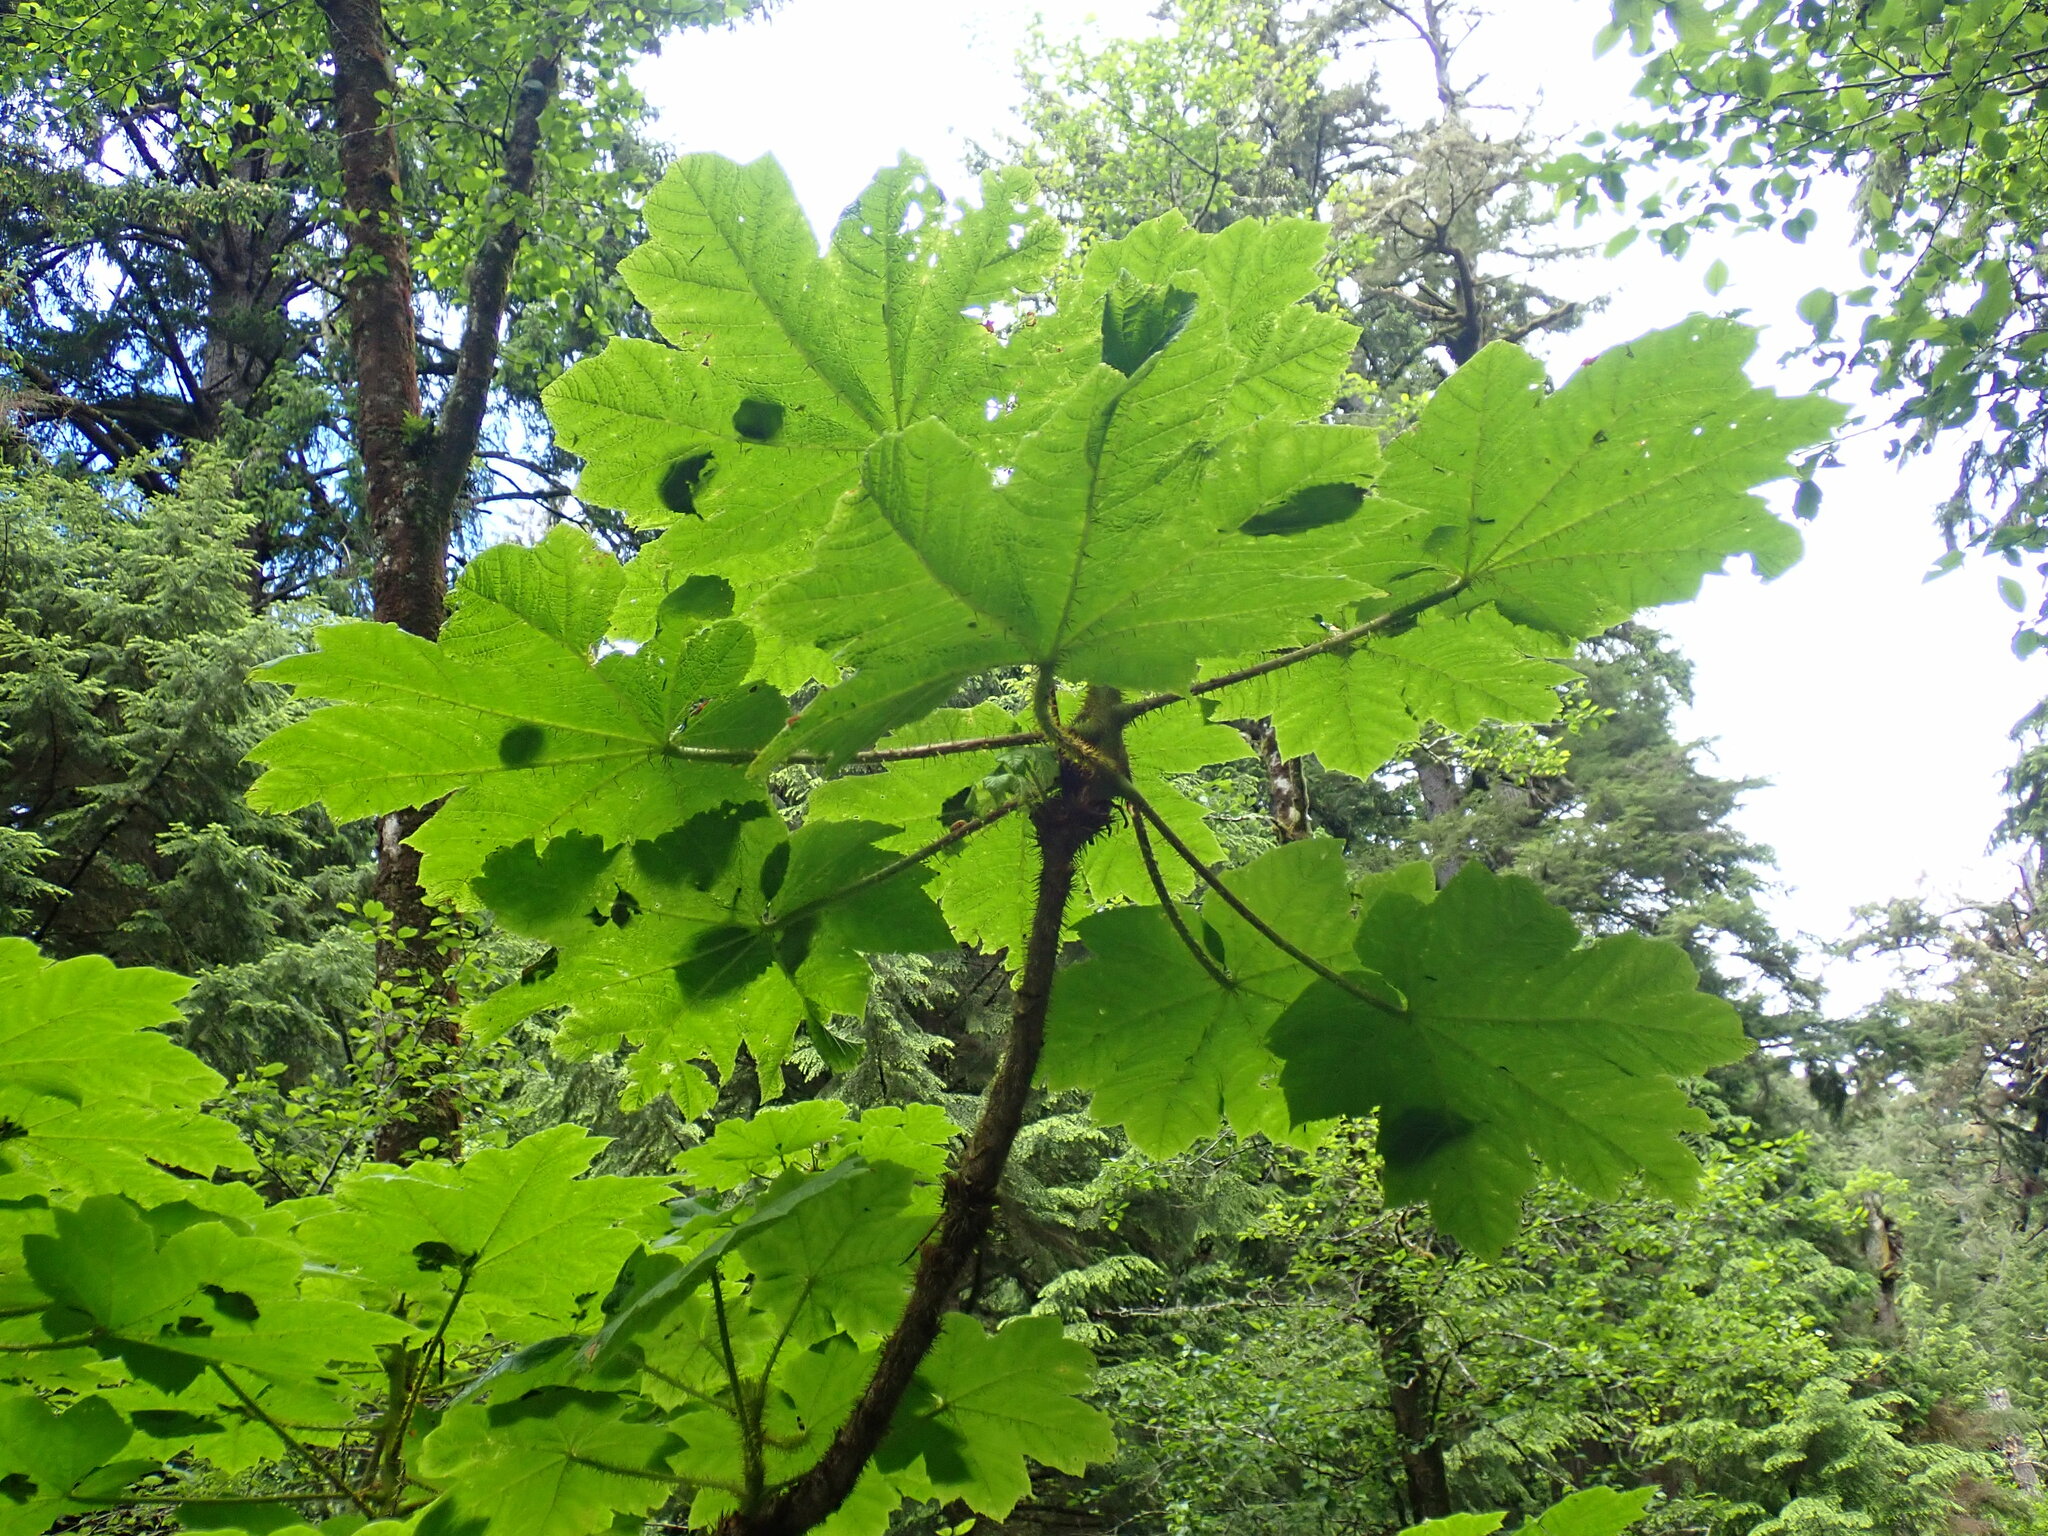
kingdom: Plantae
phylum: Tracheophyta
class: Magnoliopsida
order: Apiales
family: Araliaceae
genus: Oplopanax
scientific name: Oplopanax horridus
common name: Devil's walking-stick
